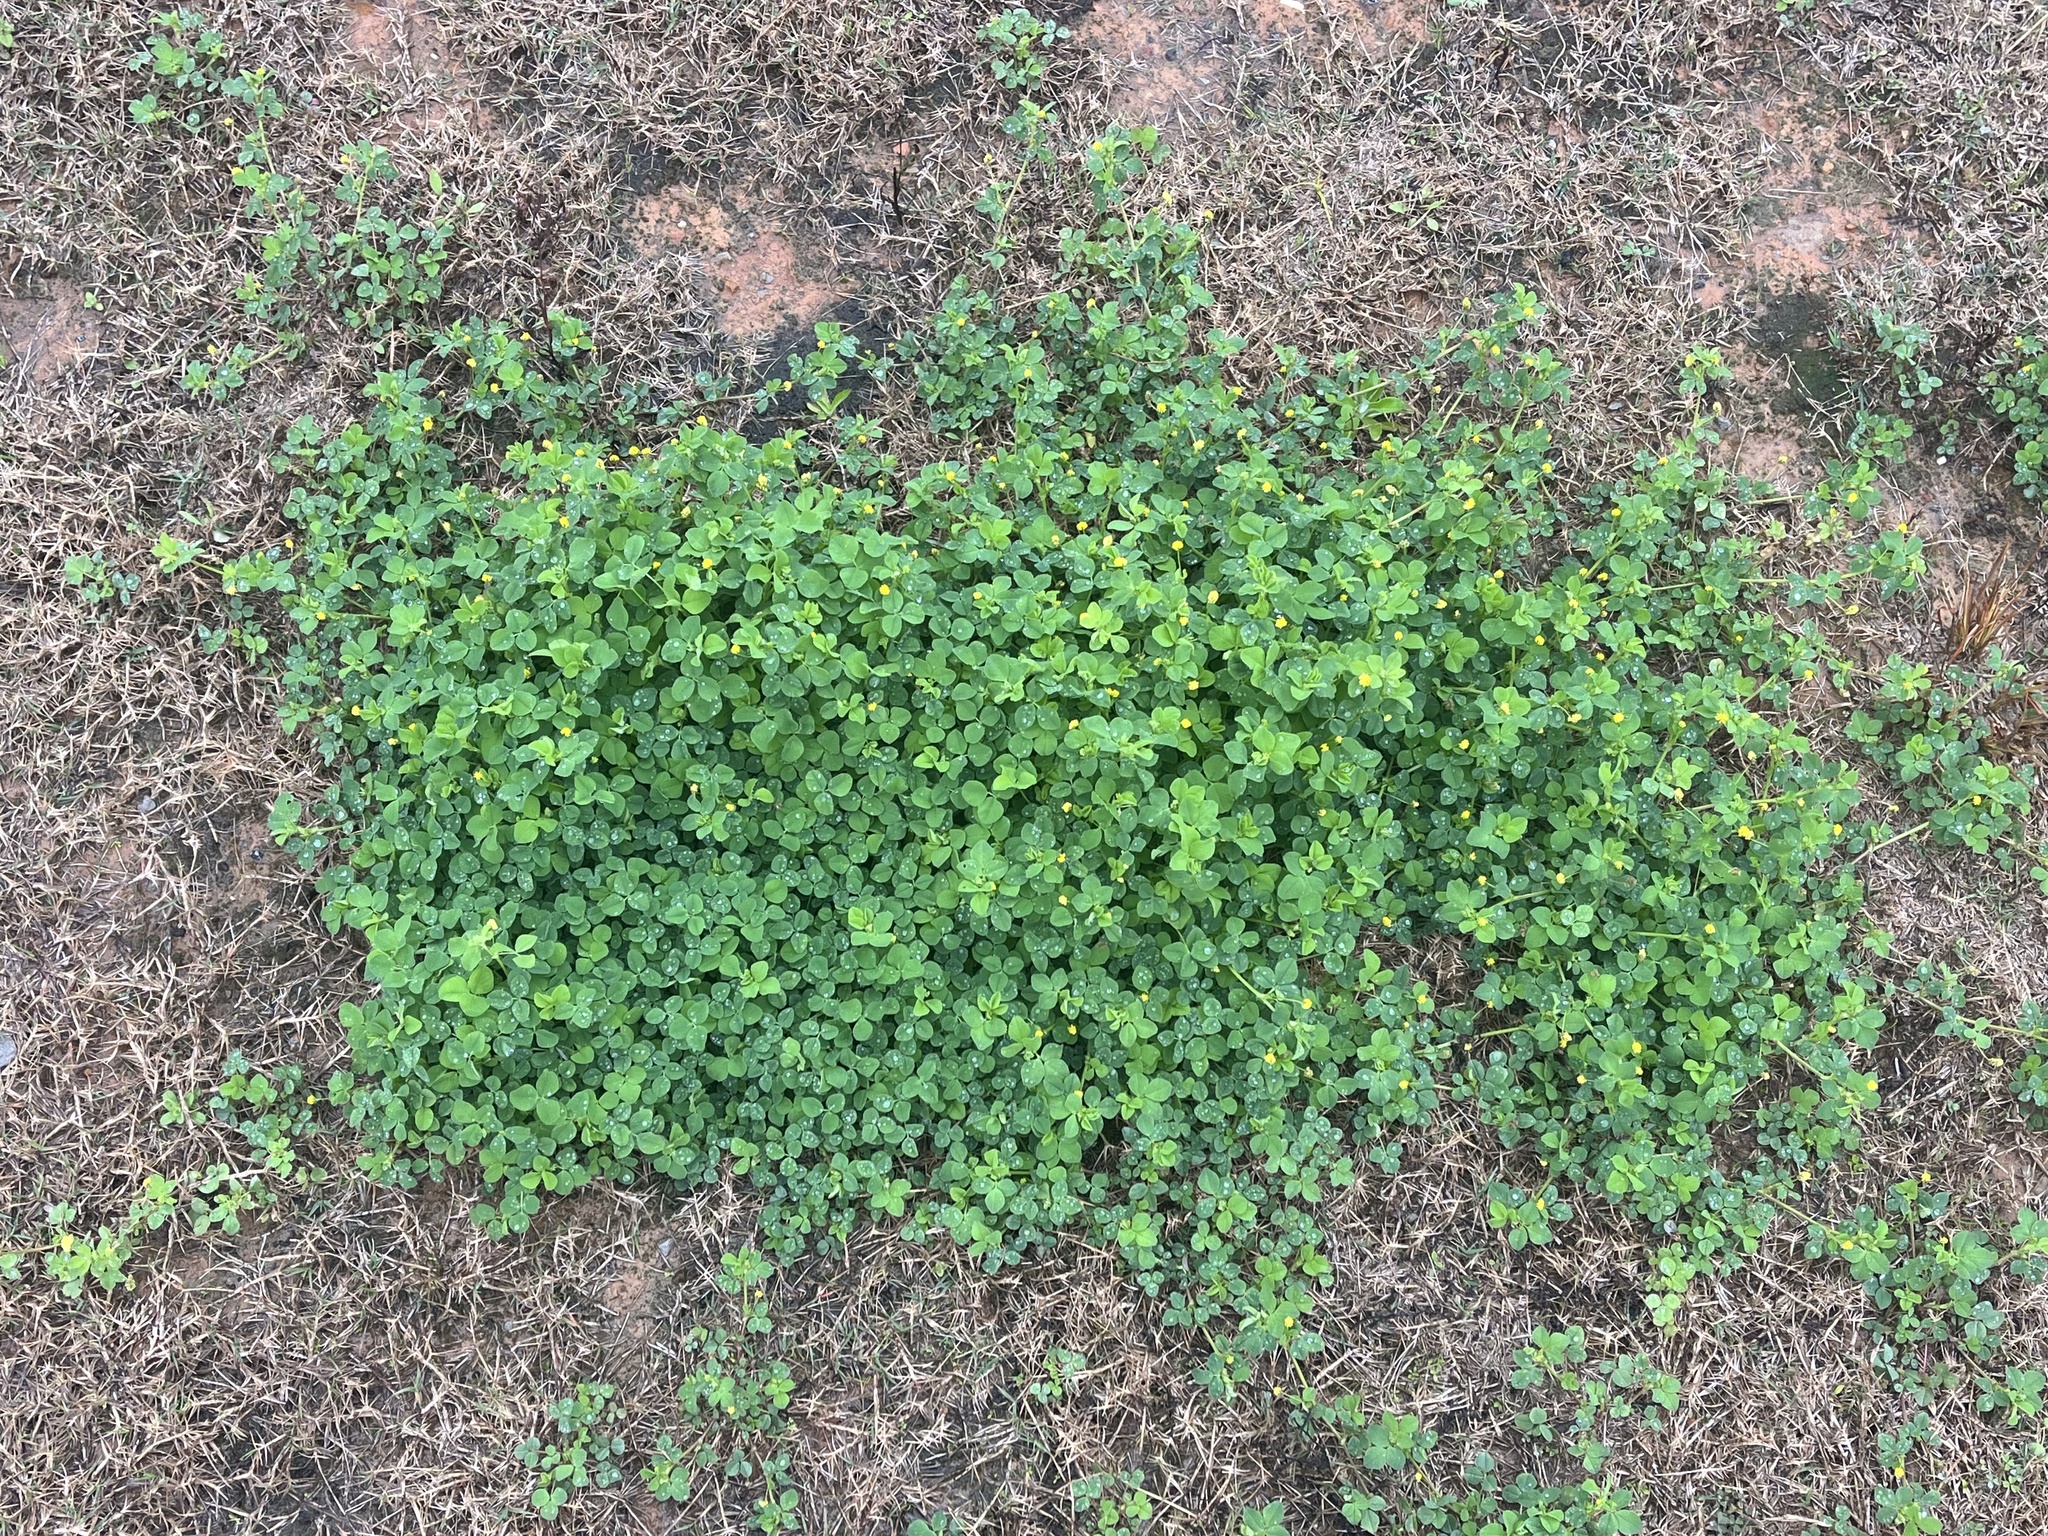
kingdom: Plantae
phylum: Tracheophyta
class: Magnoliopsida
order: Fabales
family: Fabaceae
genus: Medicago
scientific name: Medicago lupulina
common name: Black medick
